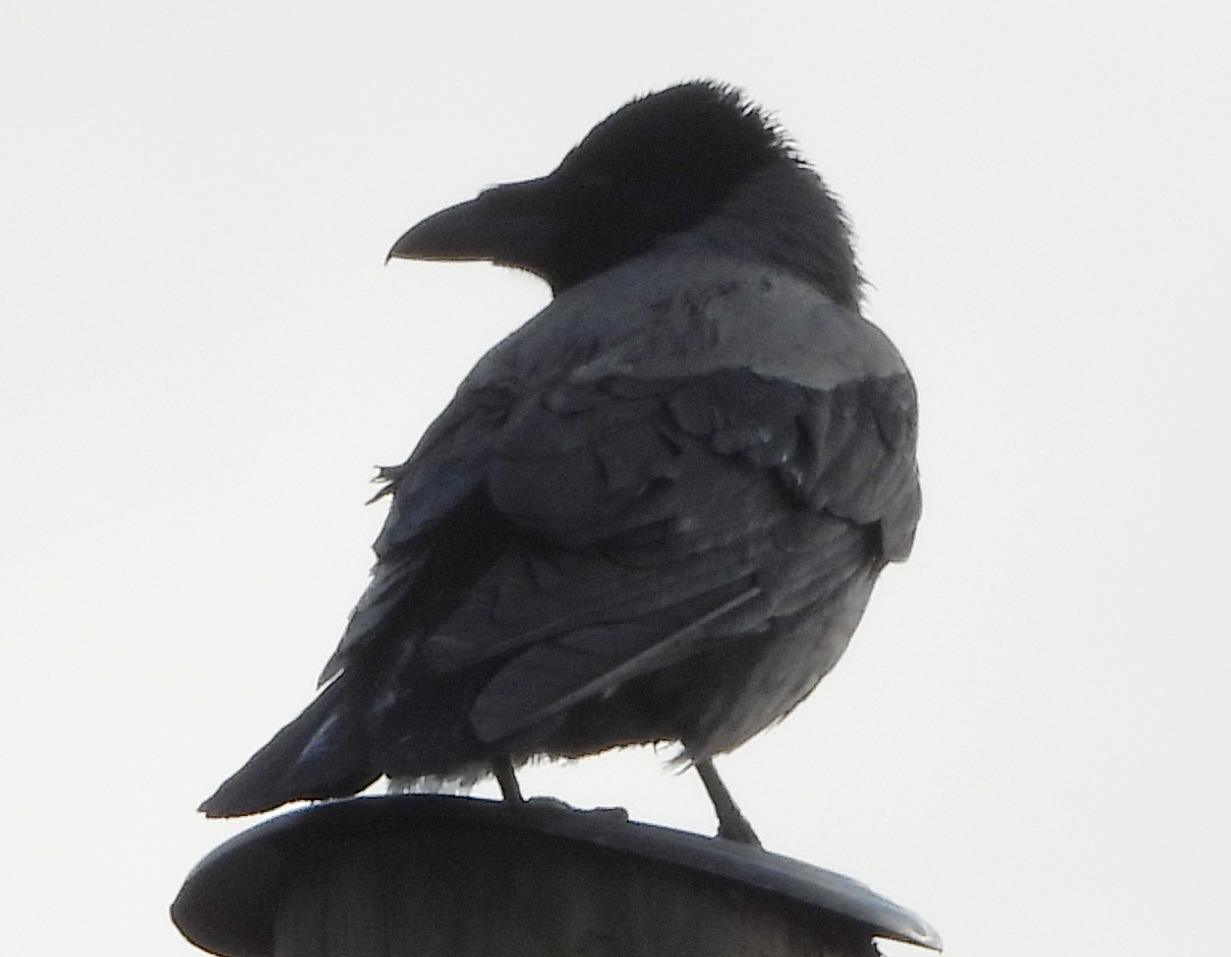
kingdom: Animalia
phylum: Chordata
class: Aves
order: Passeriformes
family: Corvidae
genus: Corvus
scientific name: Corvus cornix
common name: Hooded crow
